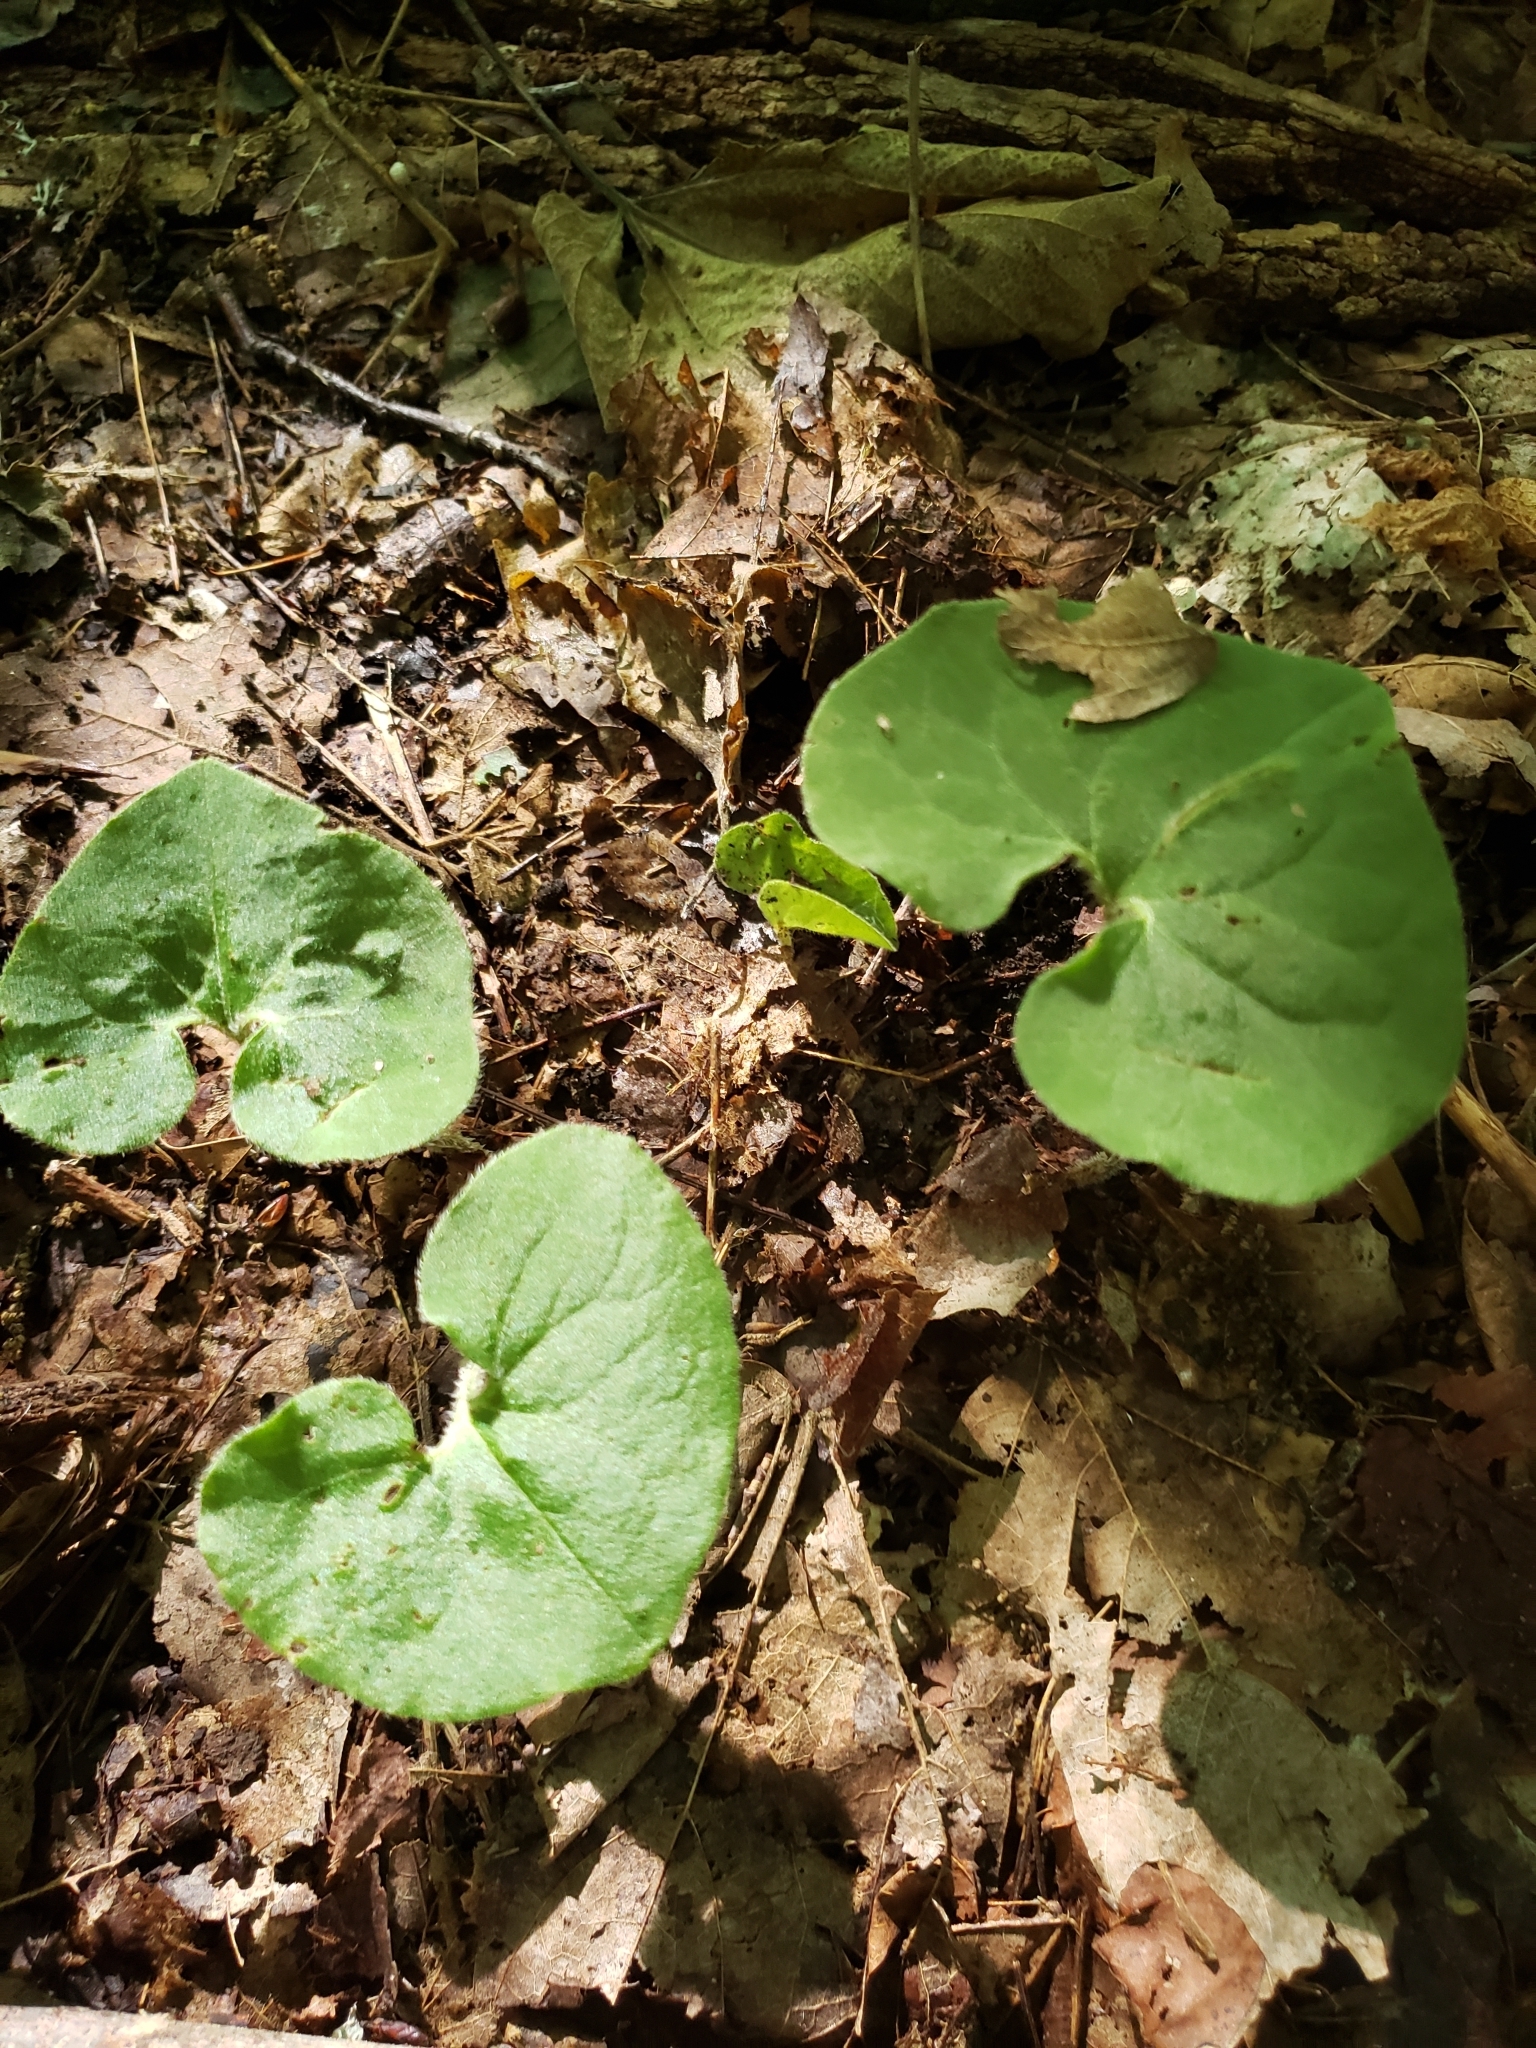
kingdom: Plantae
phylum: Tracheophyta
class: Magnoliopsida
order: Piperales
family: Aristolochiaceae
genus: Asarum
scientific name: Asarum canadense
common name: Wild ginger
